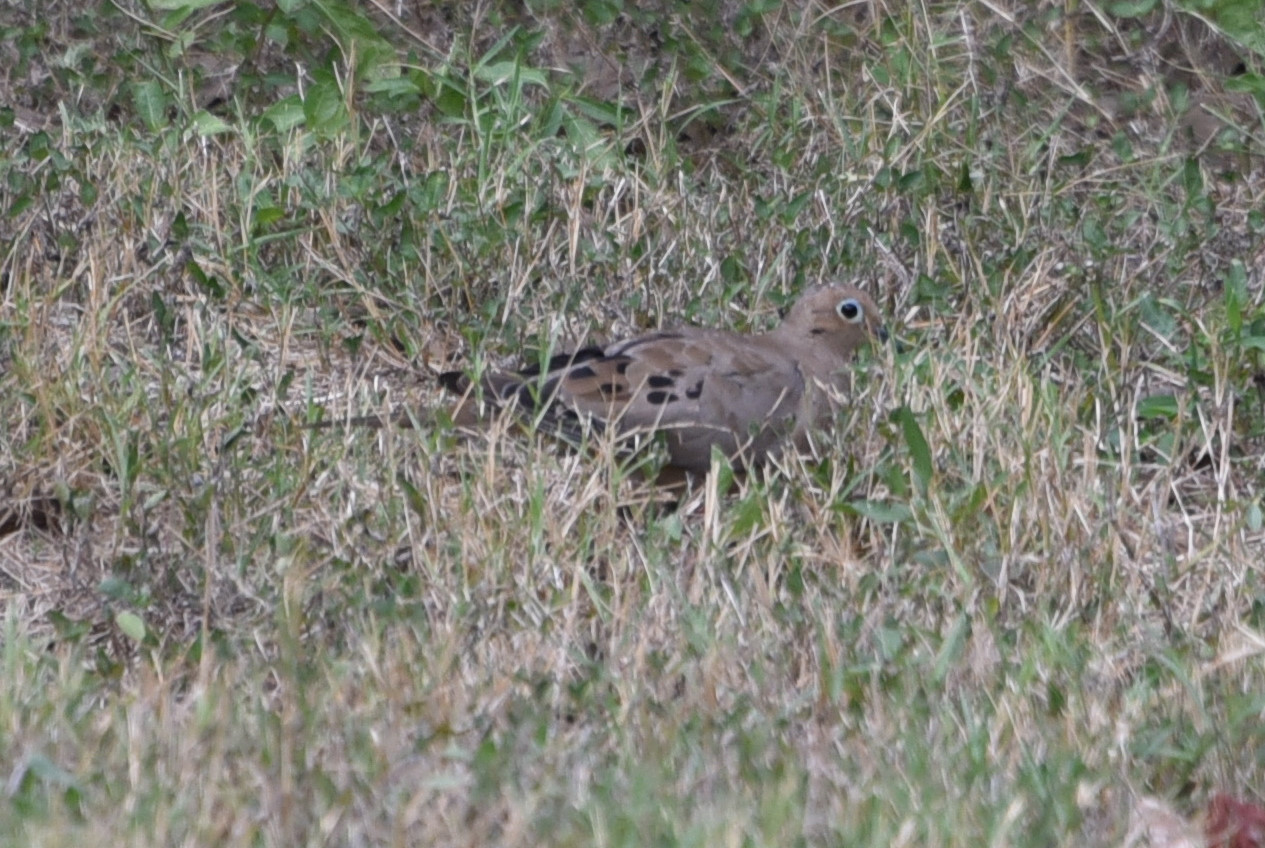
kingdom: Animalia
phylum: Chordata
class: Aves
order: Columbiformes
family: Columbidae
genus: Zenaida
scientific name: Zenaida macroura
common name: Mourning dove
